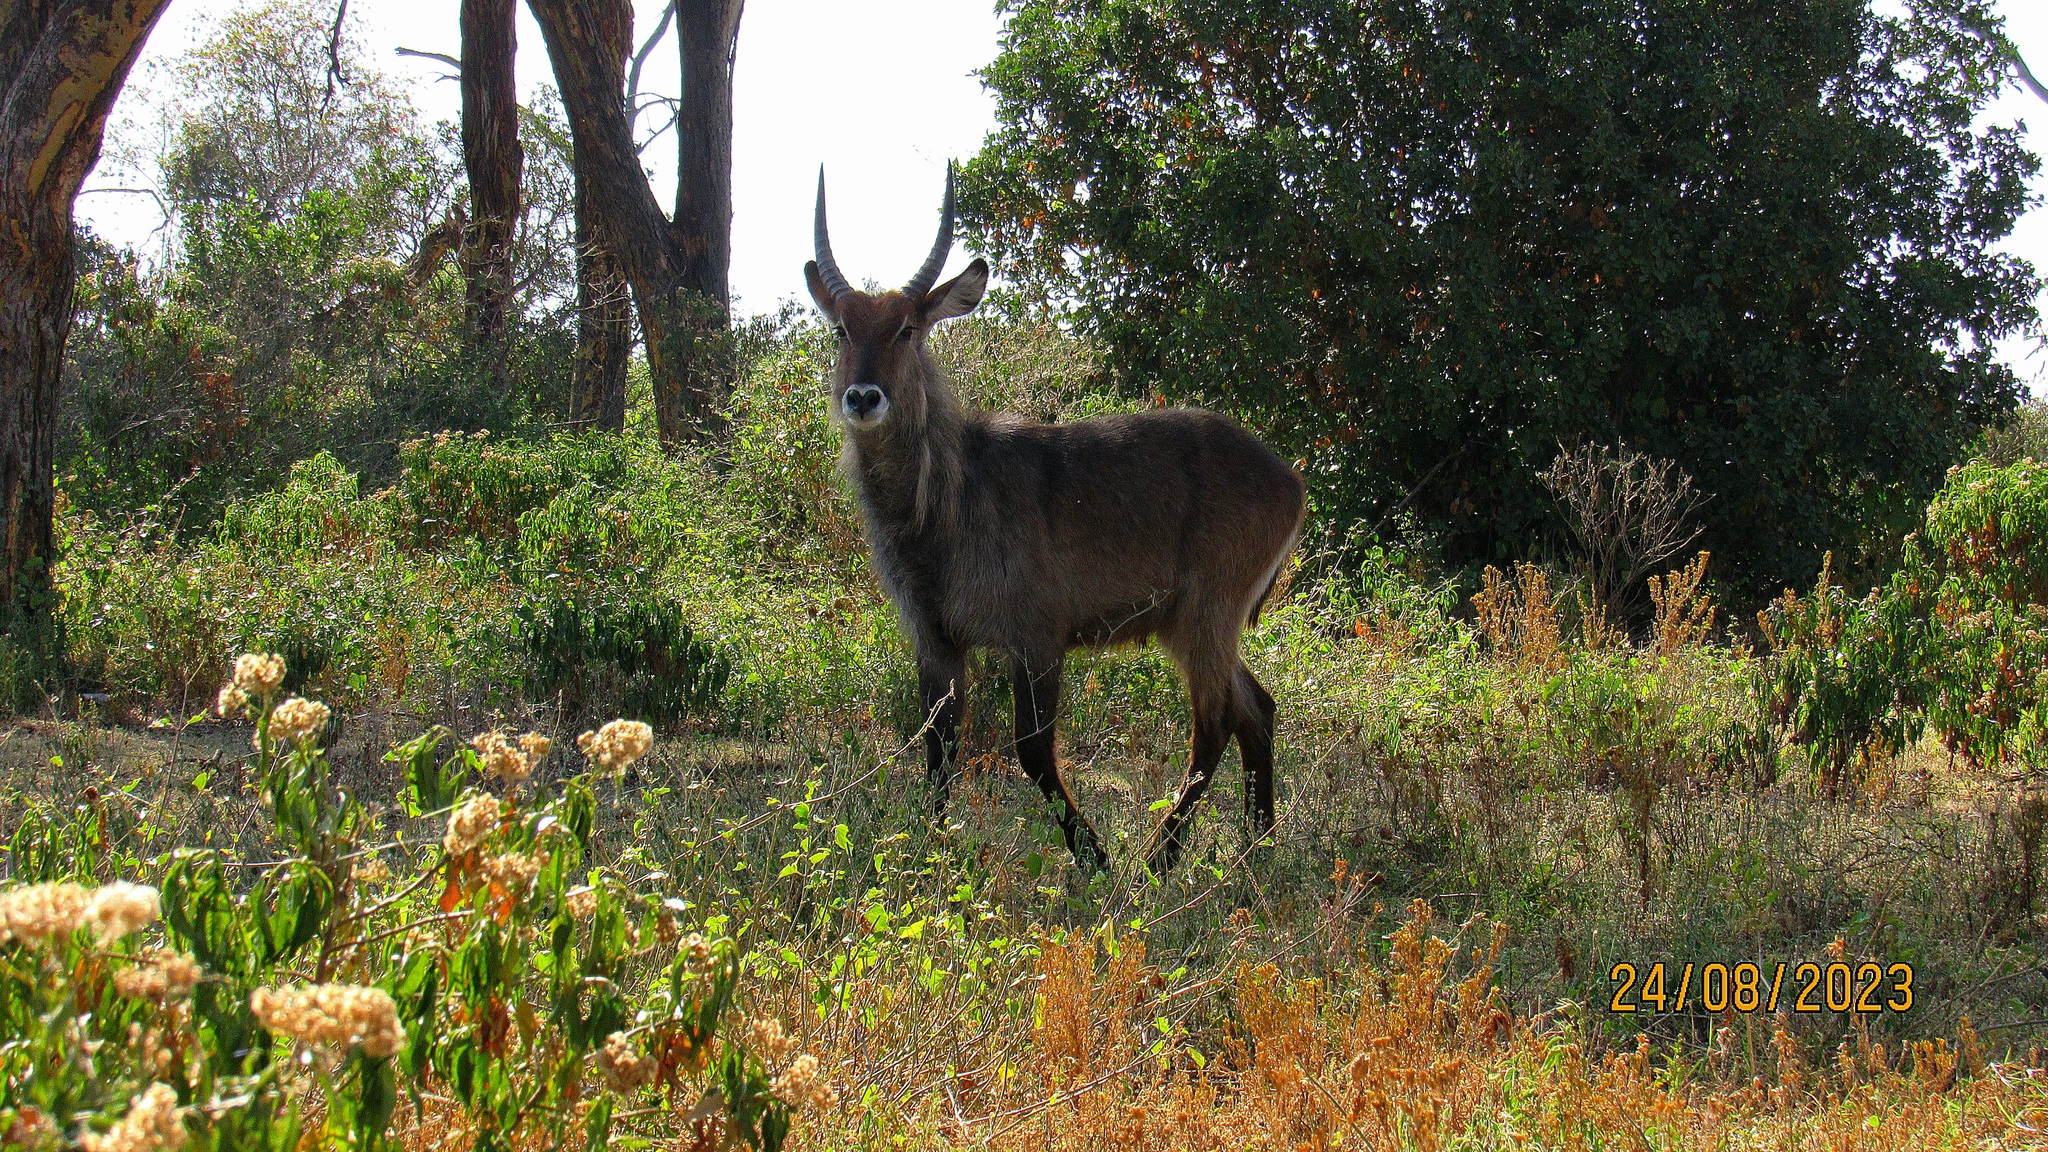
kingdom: Animalia
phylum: Chordata
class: Mammalia
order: Artiodactyla
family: Bovidae
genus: Kobus
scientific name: Kobus ellipsiprymnus
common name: Waterbuck
